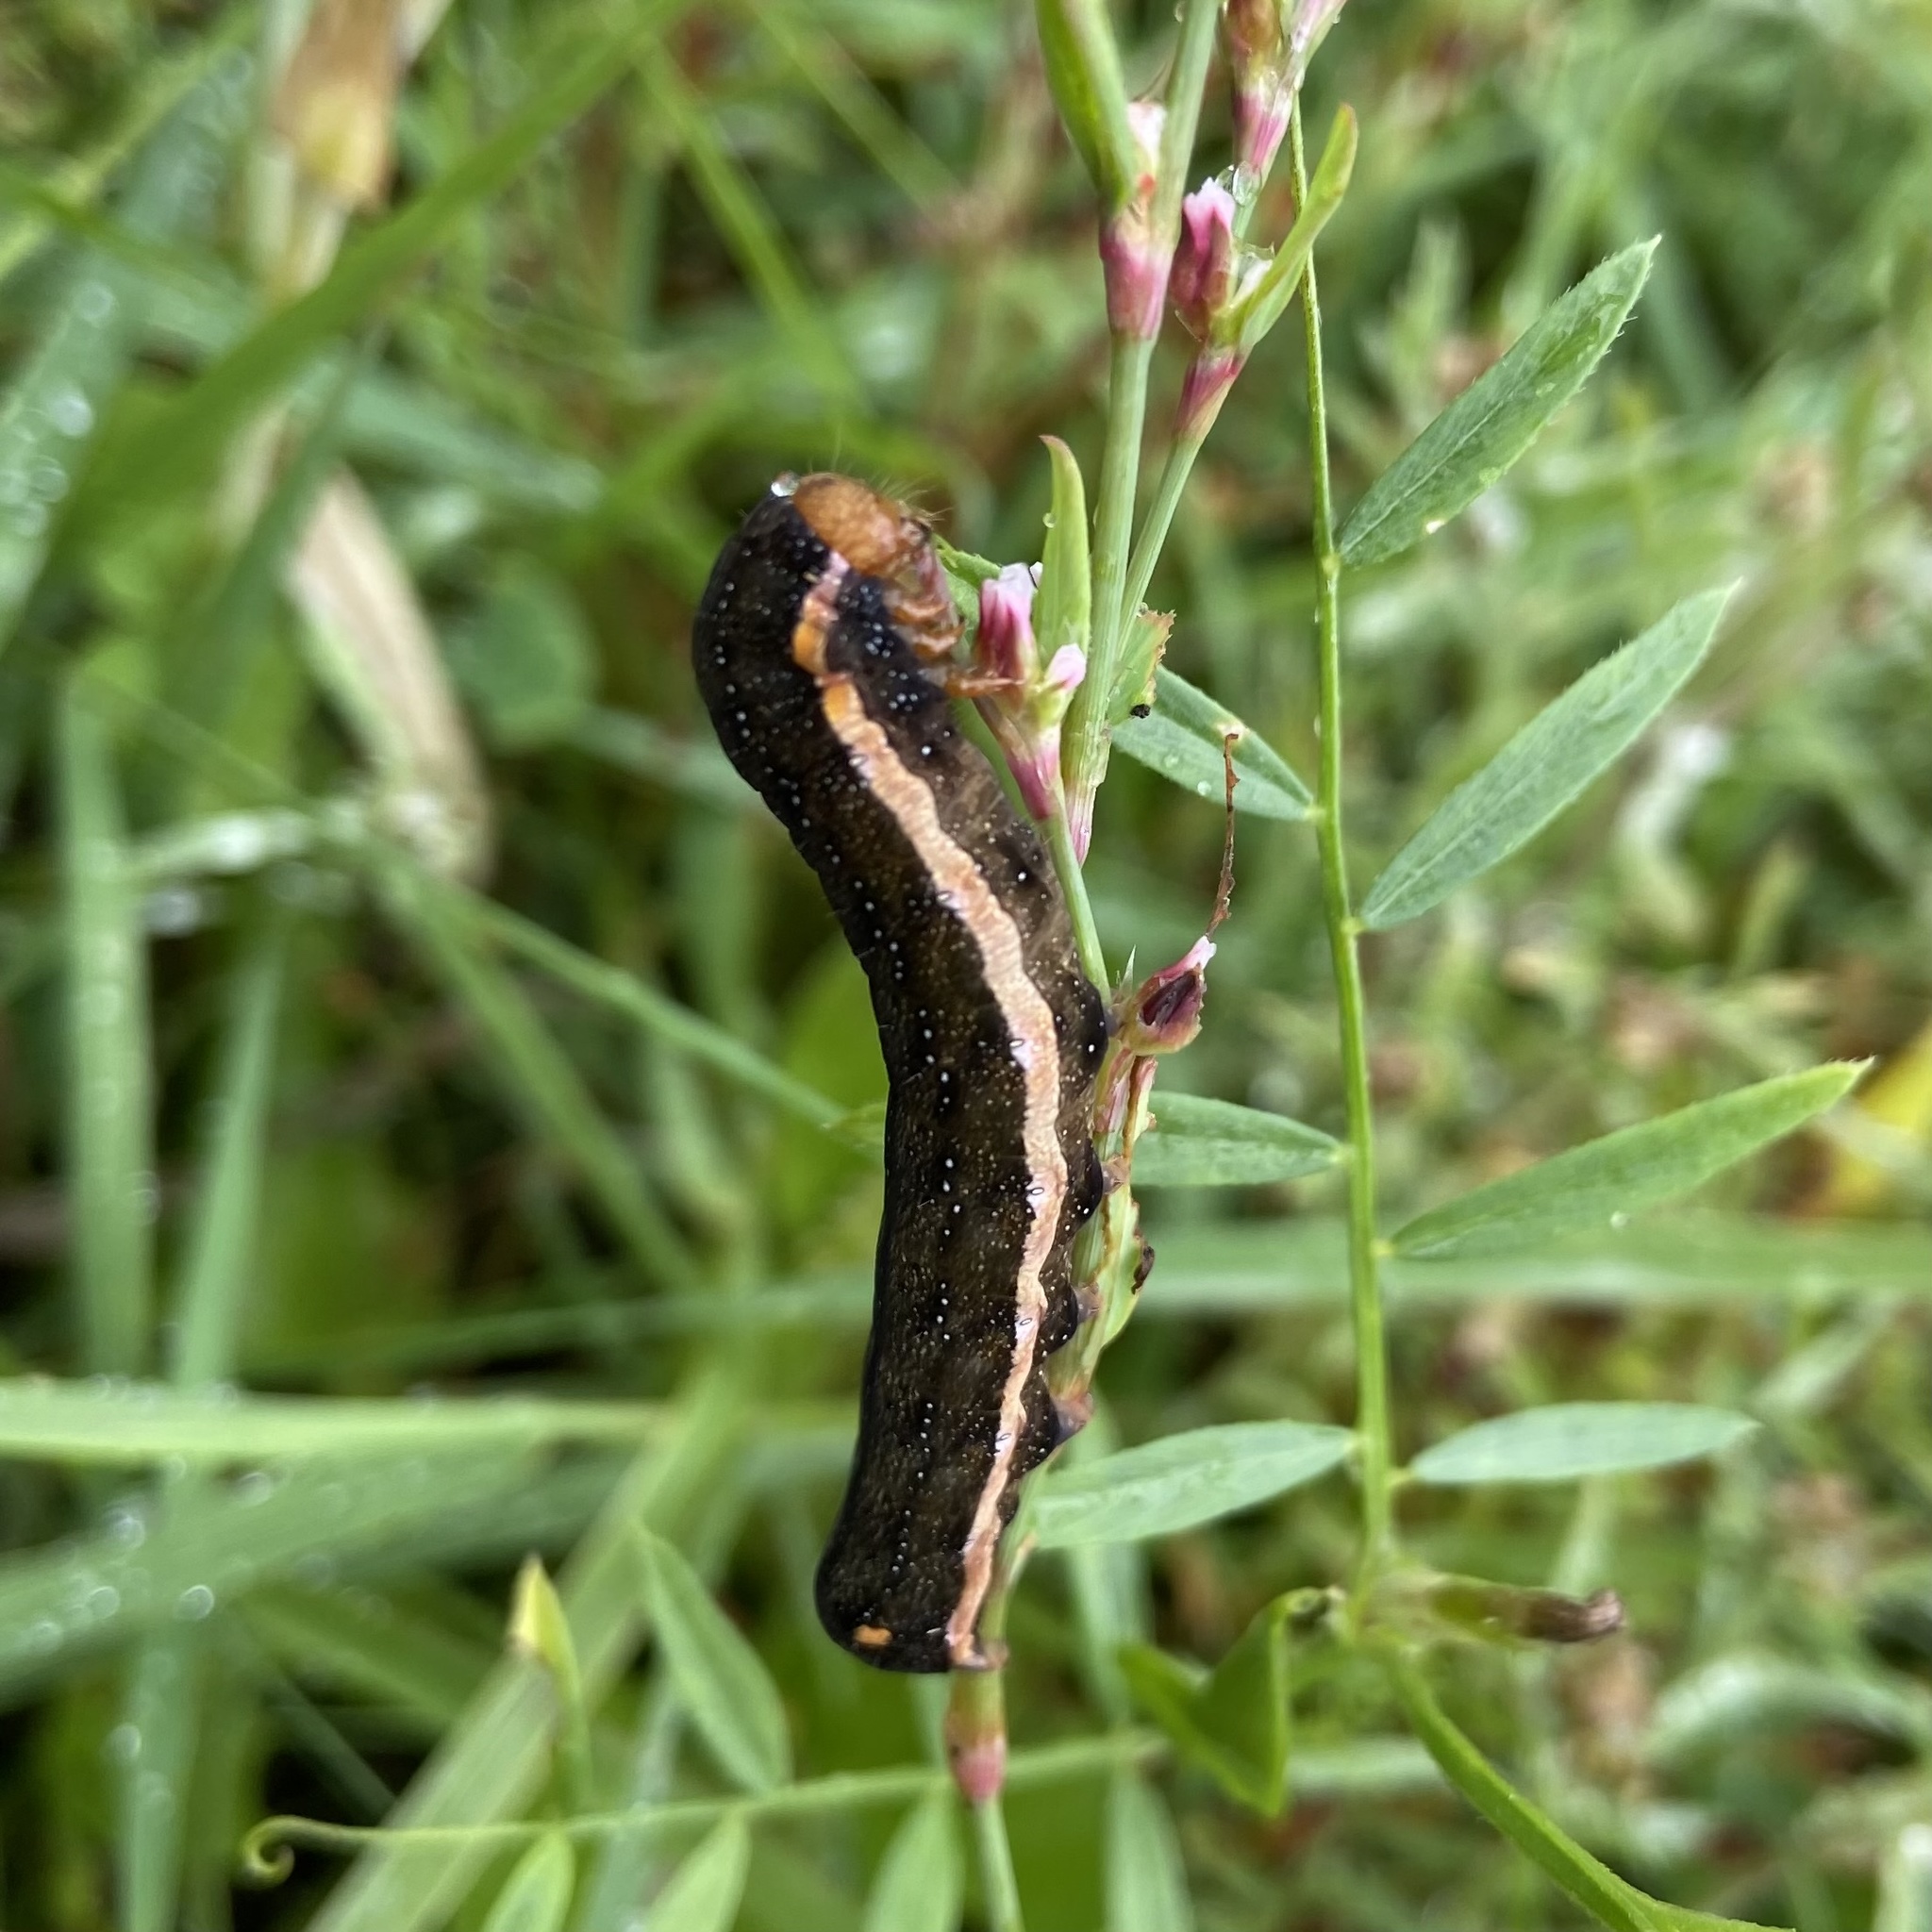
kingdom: Animalia
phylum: Arthropoda
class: Insecta
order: Lepidoptera
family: Noctuidae
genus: Trachea
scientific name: Trachea atriplicis
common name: Orache moth
